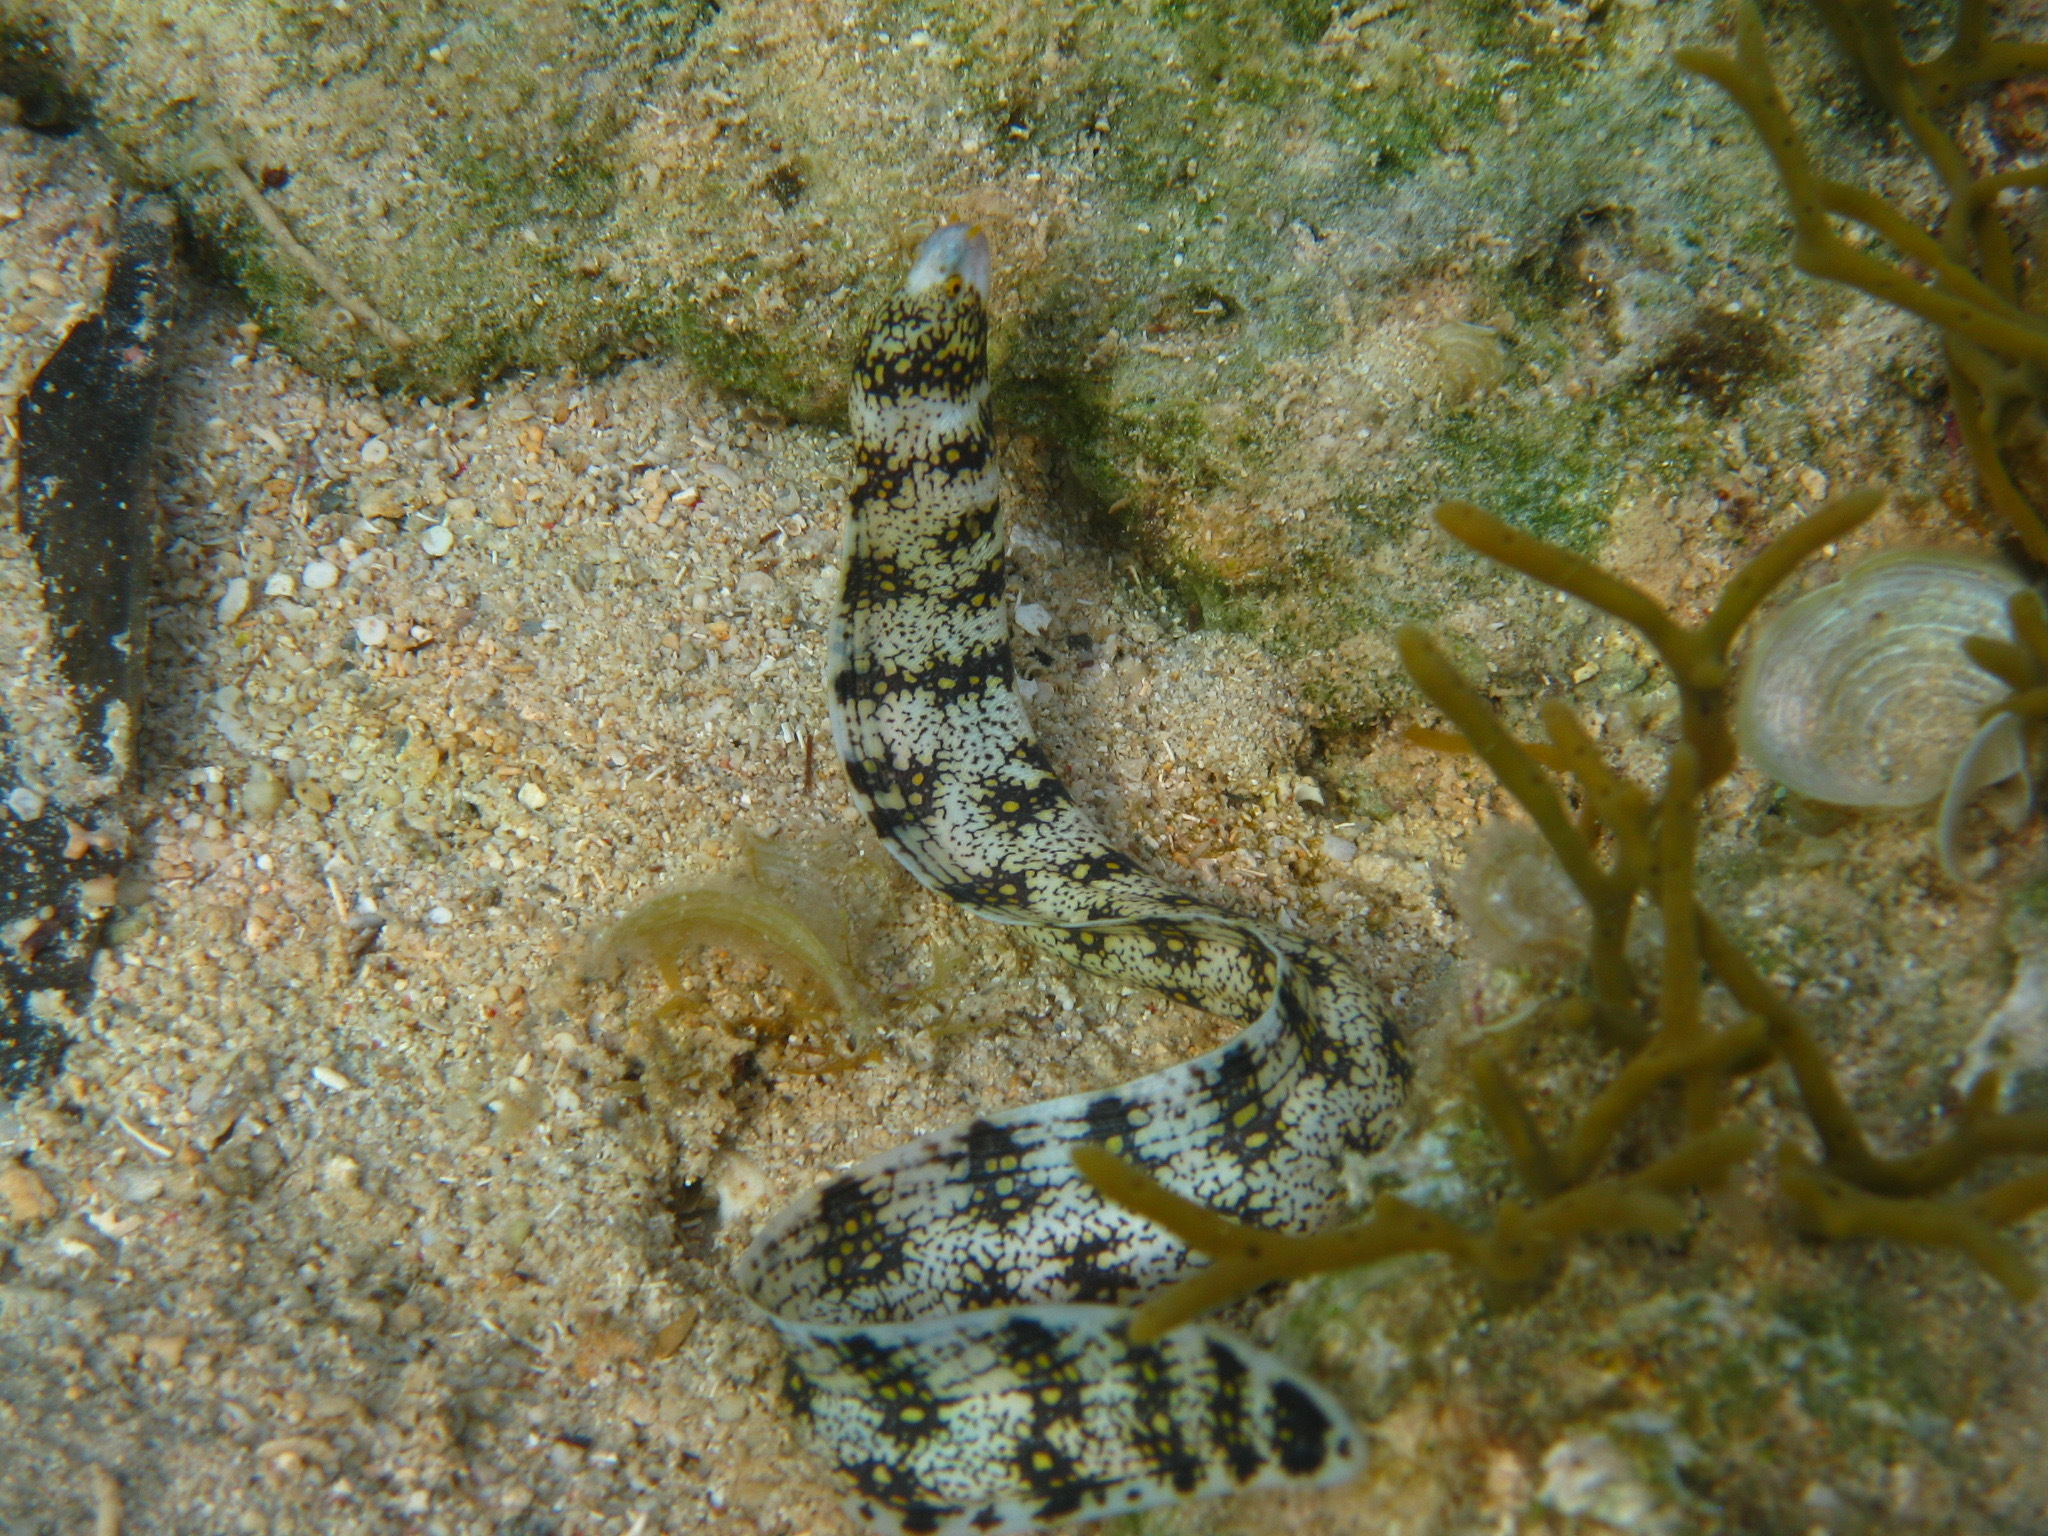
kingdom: Animalia
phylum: Chordata
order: Anguilliformes
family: Muraenidae
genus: Echidna
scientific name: Echidna nebulosa
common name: Snowflake moray
